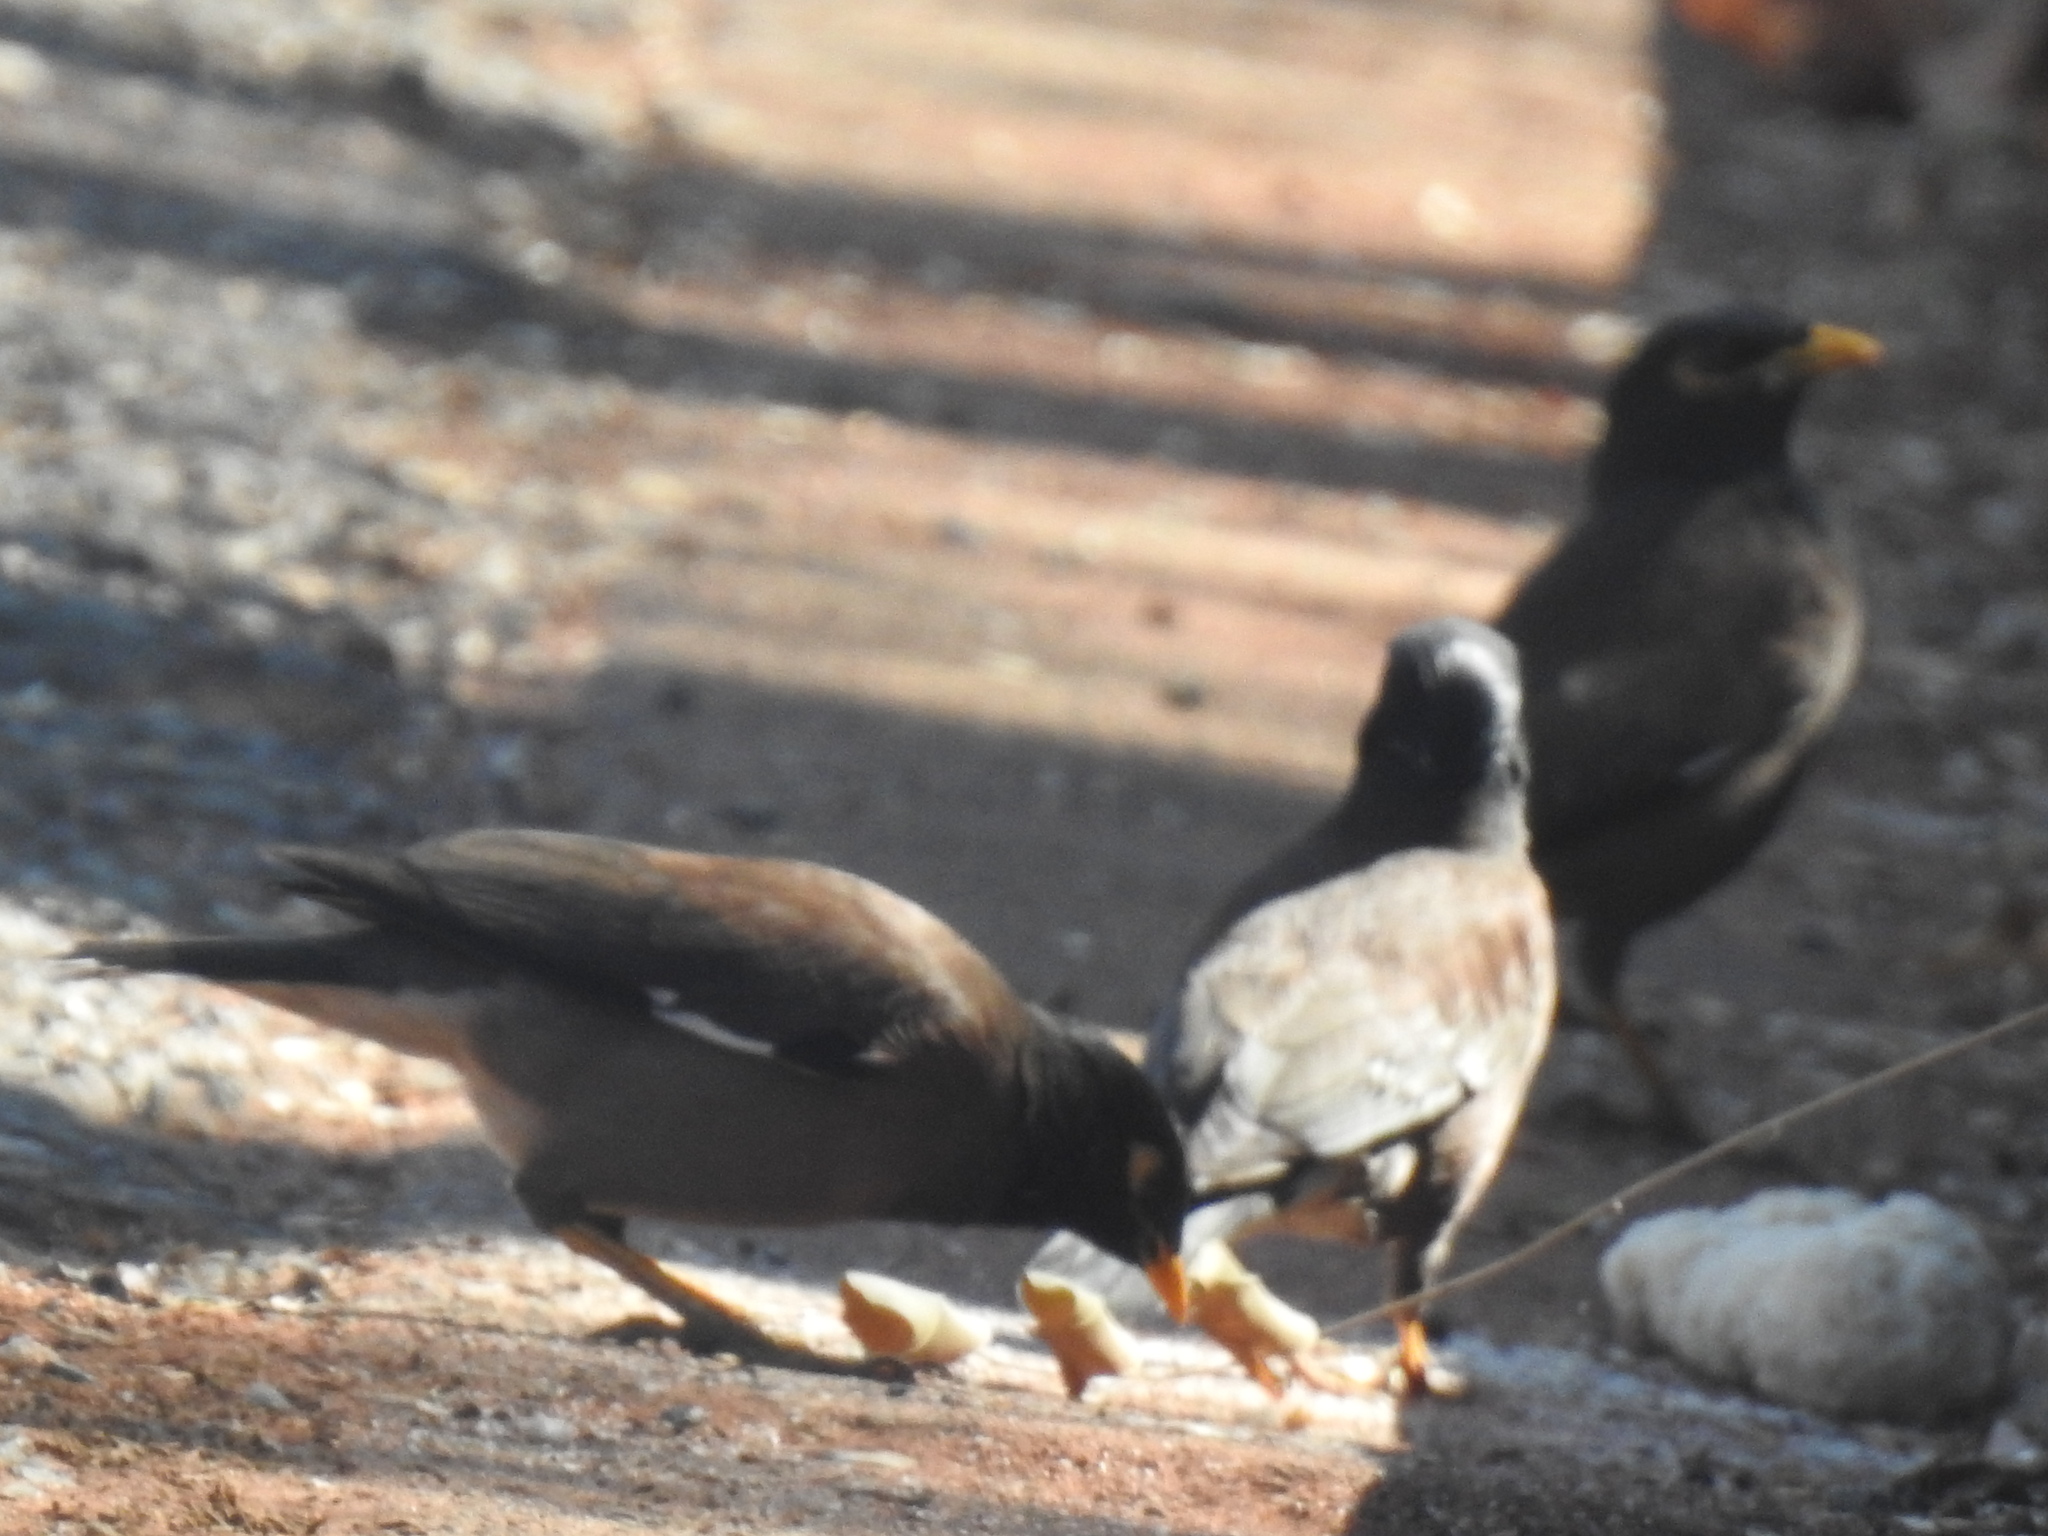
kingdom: Animalia
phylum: Chordata
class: Aves
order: Passeriformes
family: Sturnidae
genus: Acridotheres
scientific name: Acridotheres tristis
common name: Common myna
